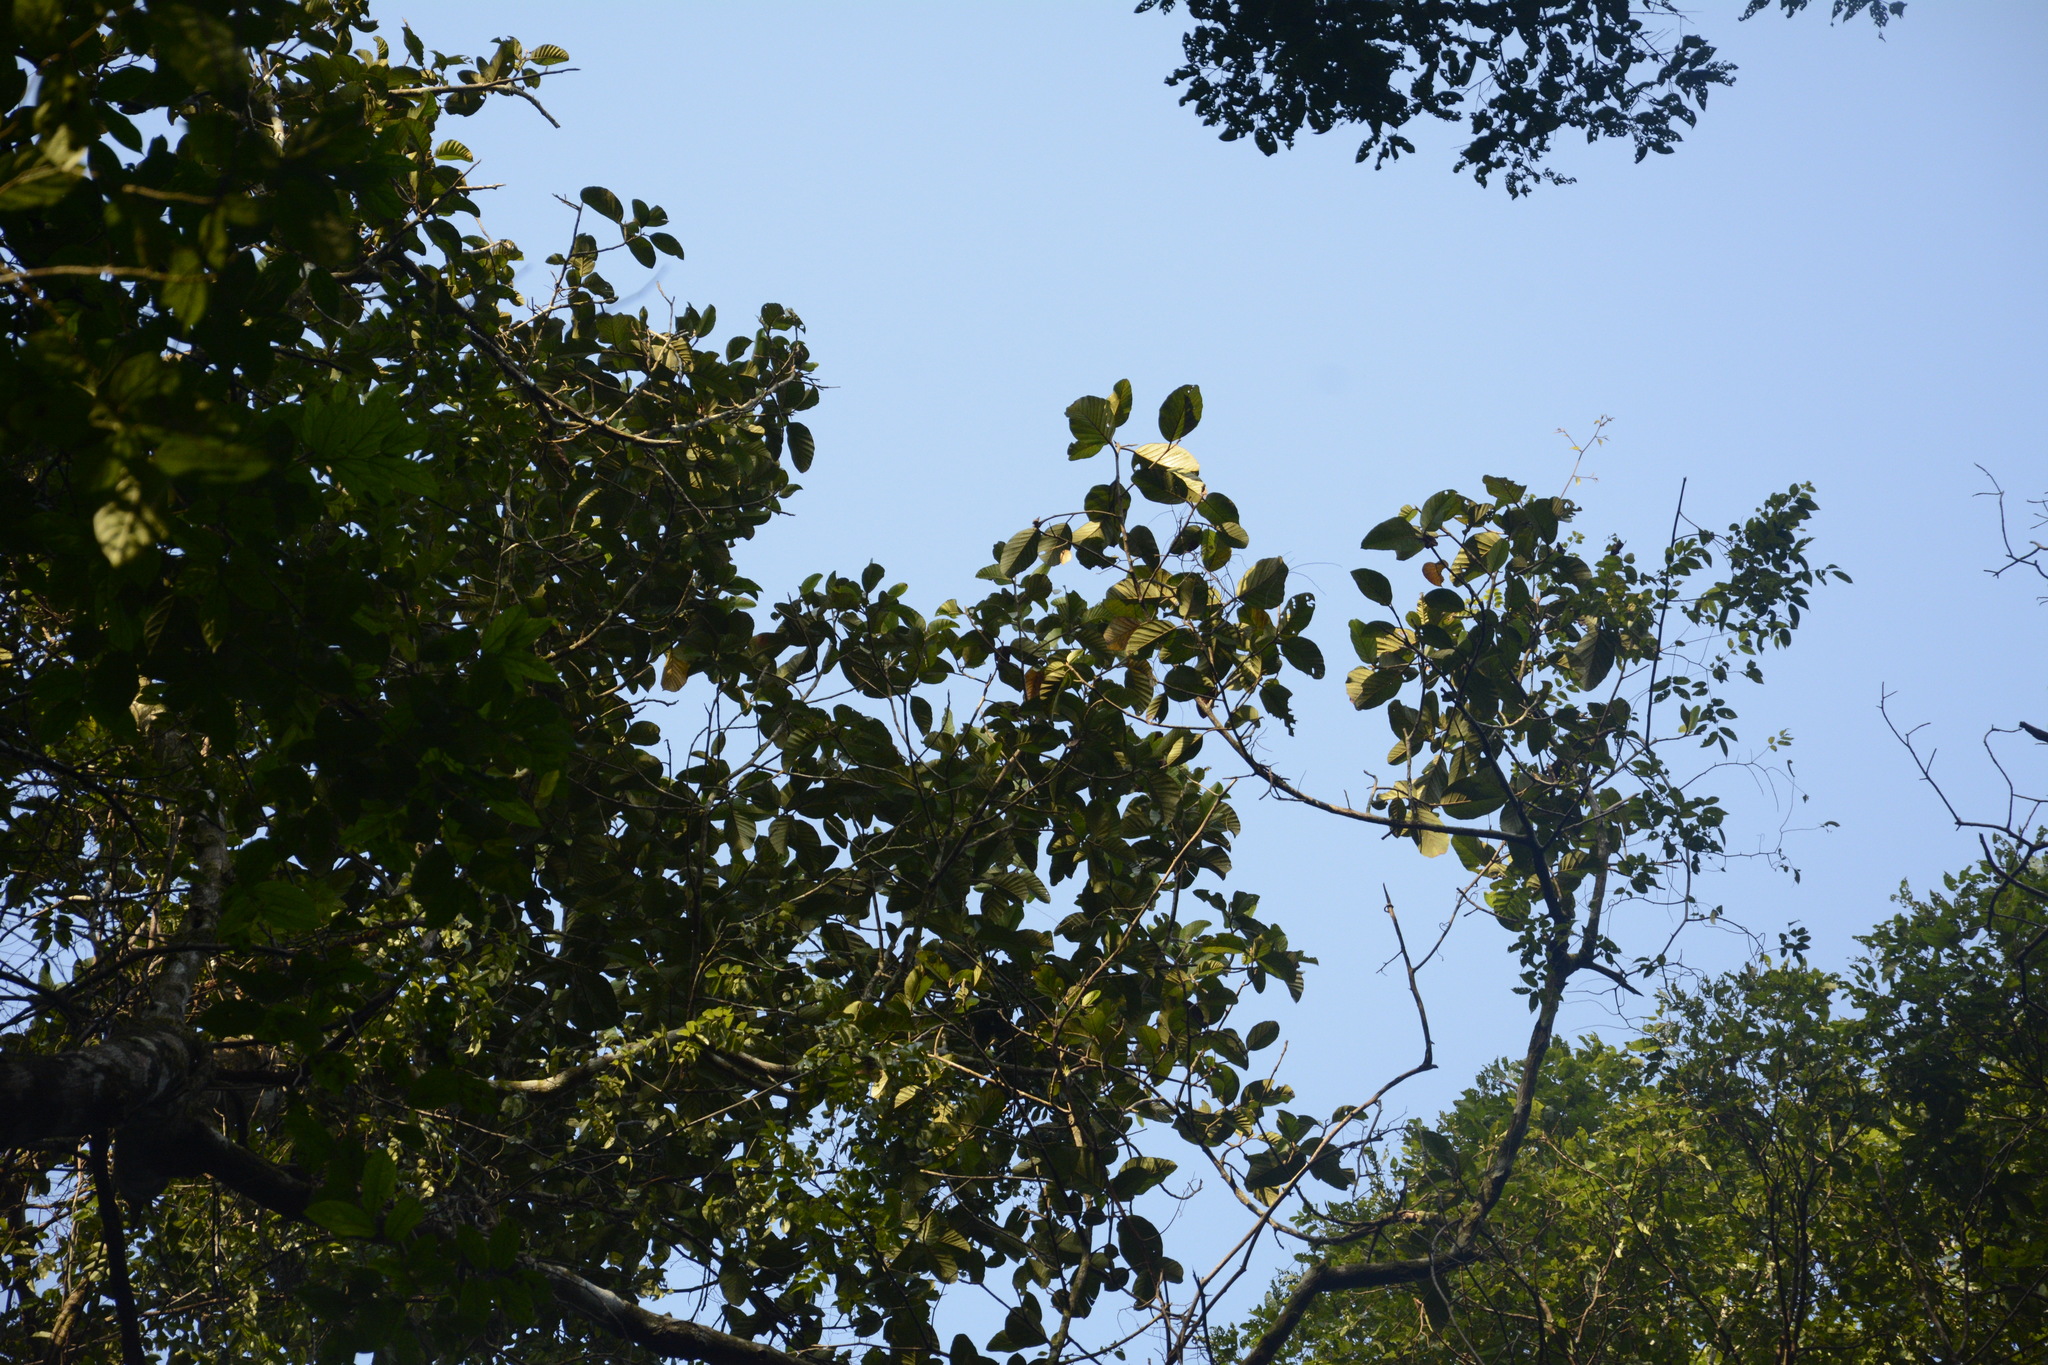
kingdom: Plantae
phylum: Tracheophyta
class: Magnoliopsida
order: Rosales
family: Moraceae
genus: Artocarpus
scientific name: Artocarpus hirsutus
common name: Hairy bread-fruit tree
